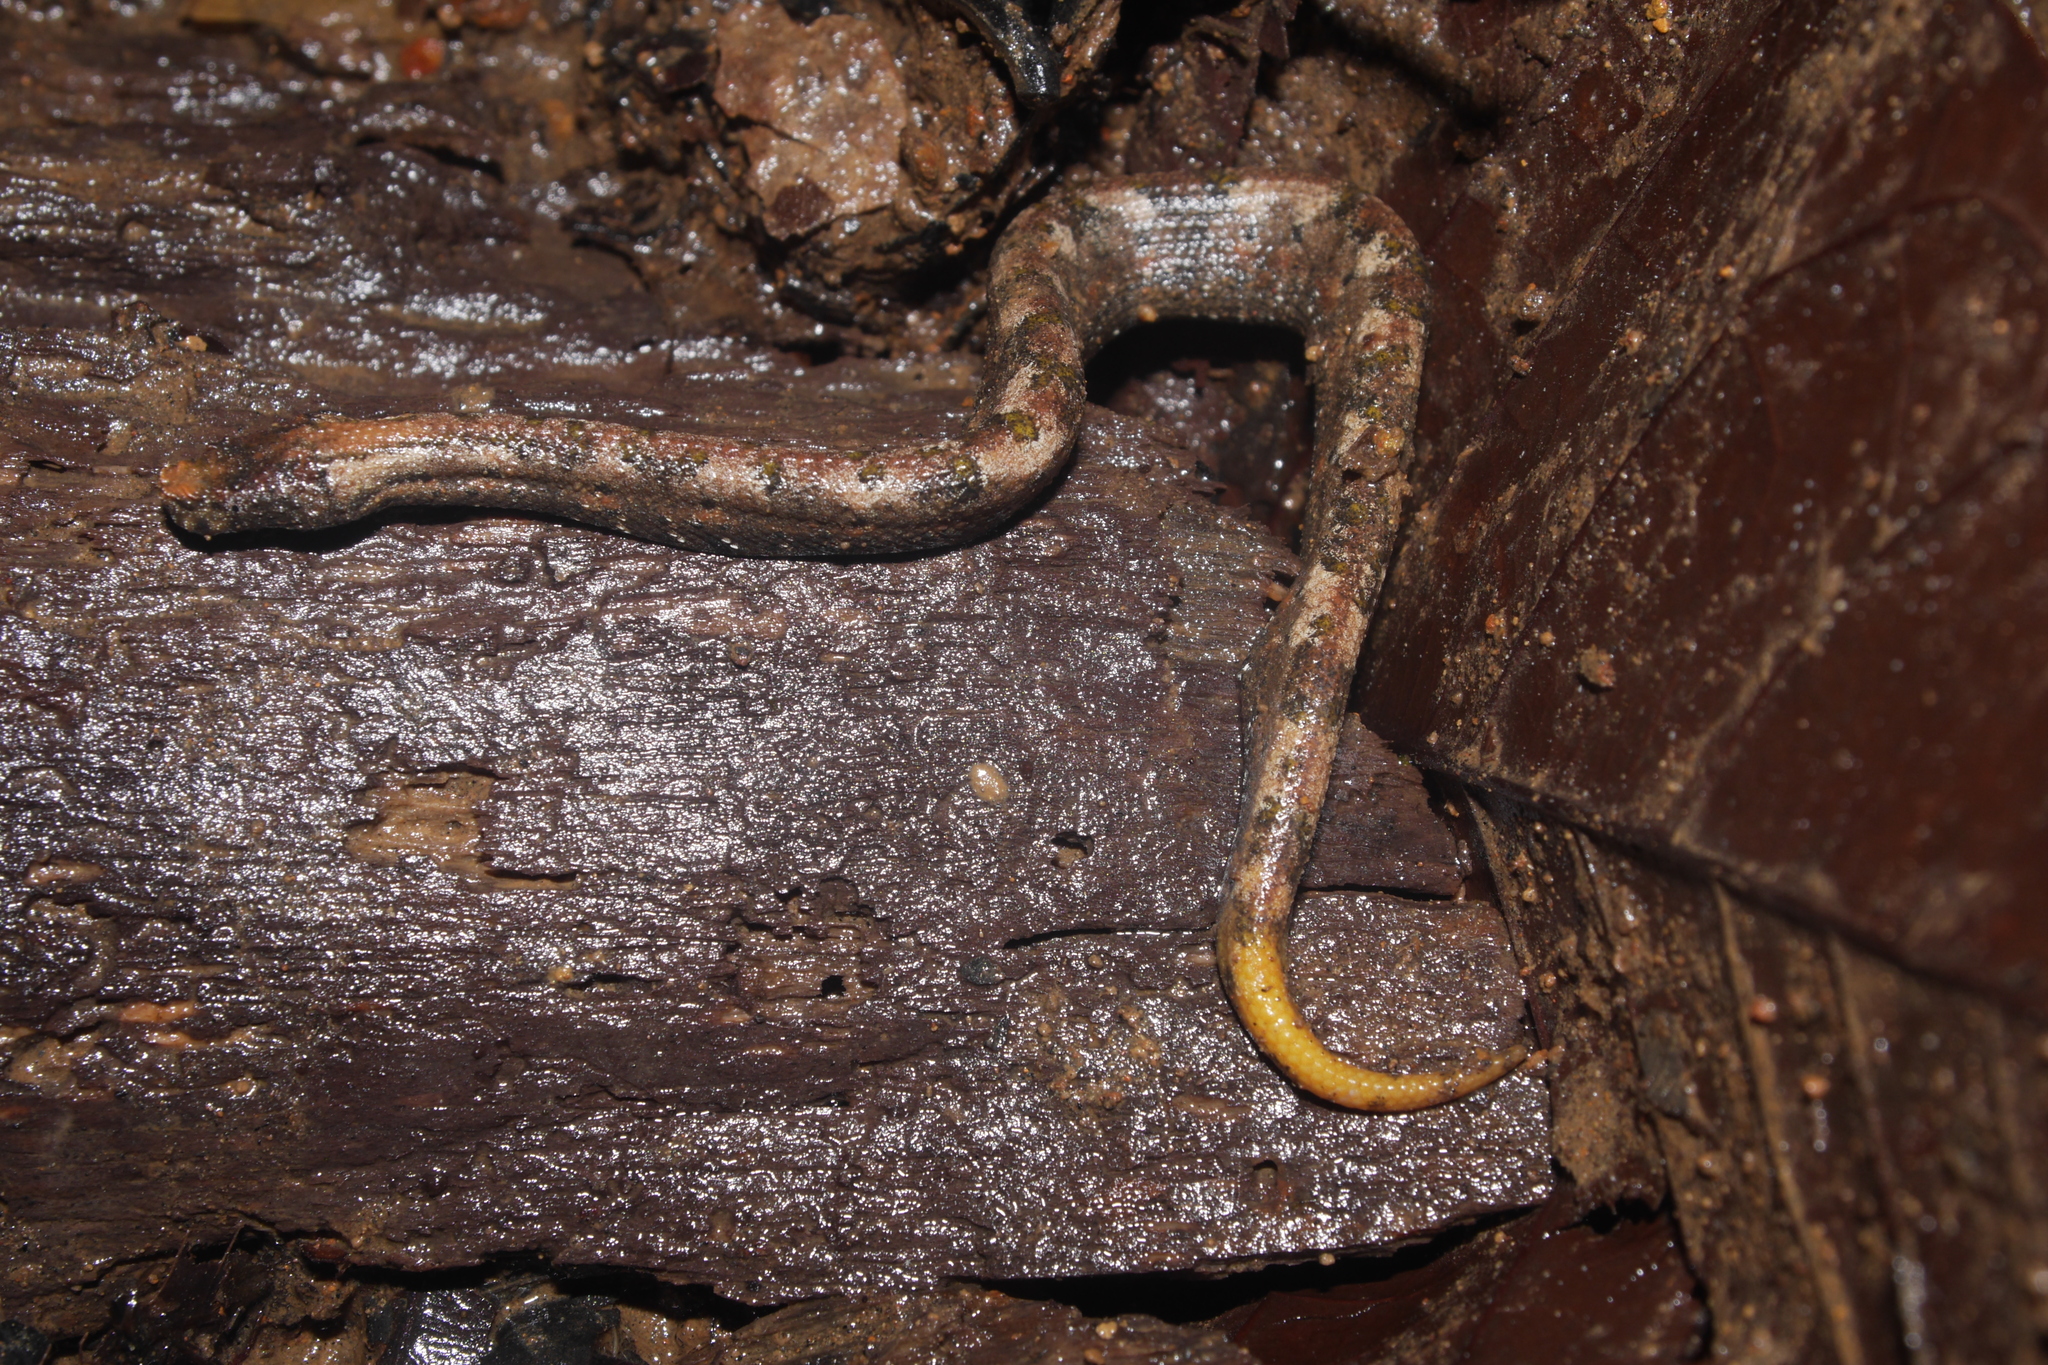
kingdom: Animalia
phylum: Chordata
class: Squamata
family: Tropidophiidae
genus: Trachyboa
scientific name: Trachyboa boulengeri
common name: Northern eyelash boa
